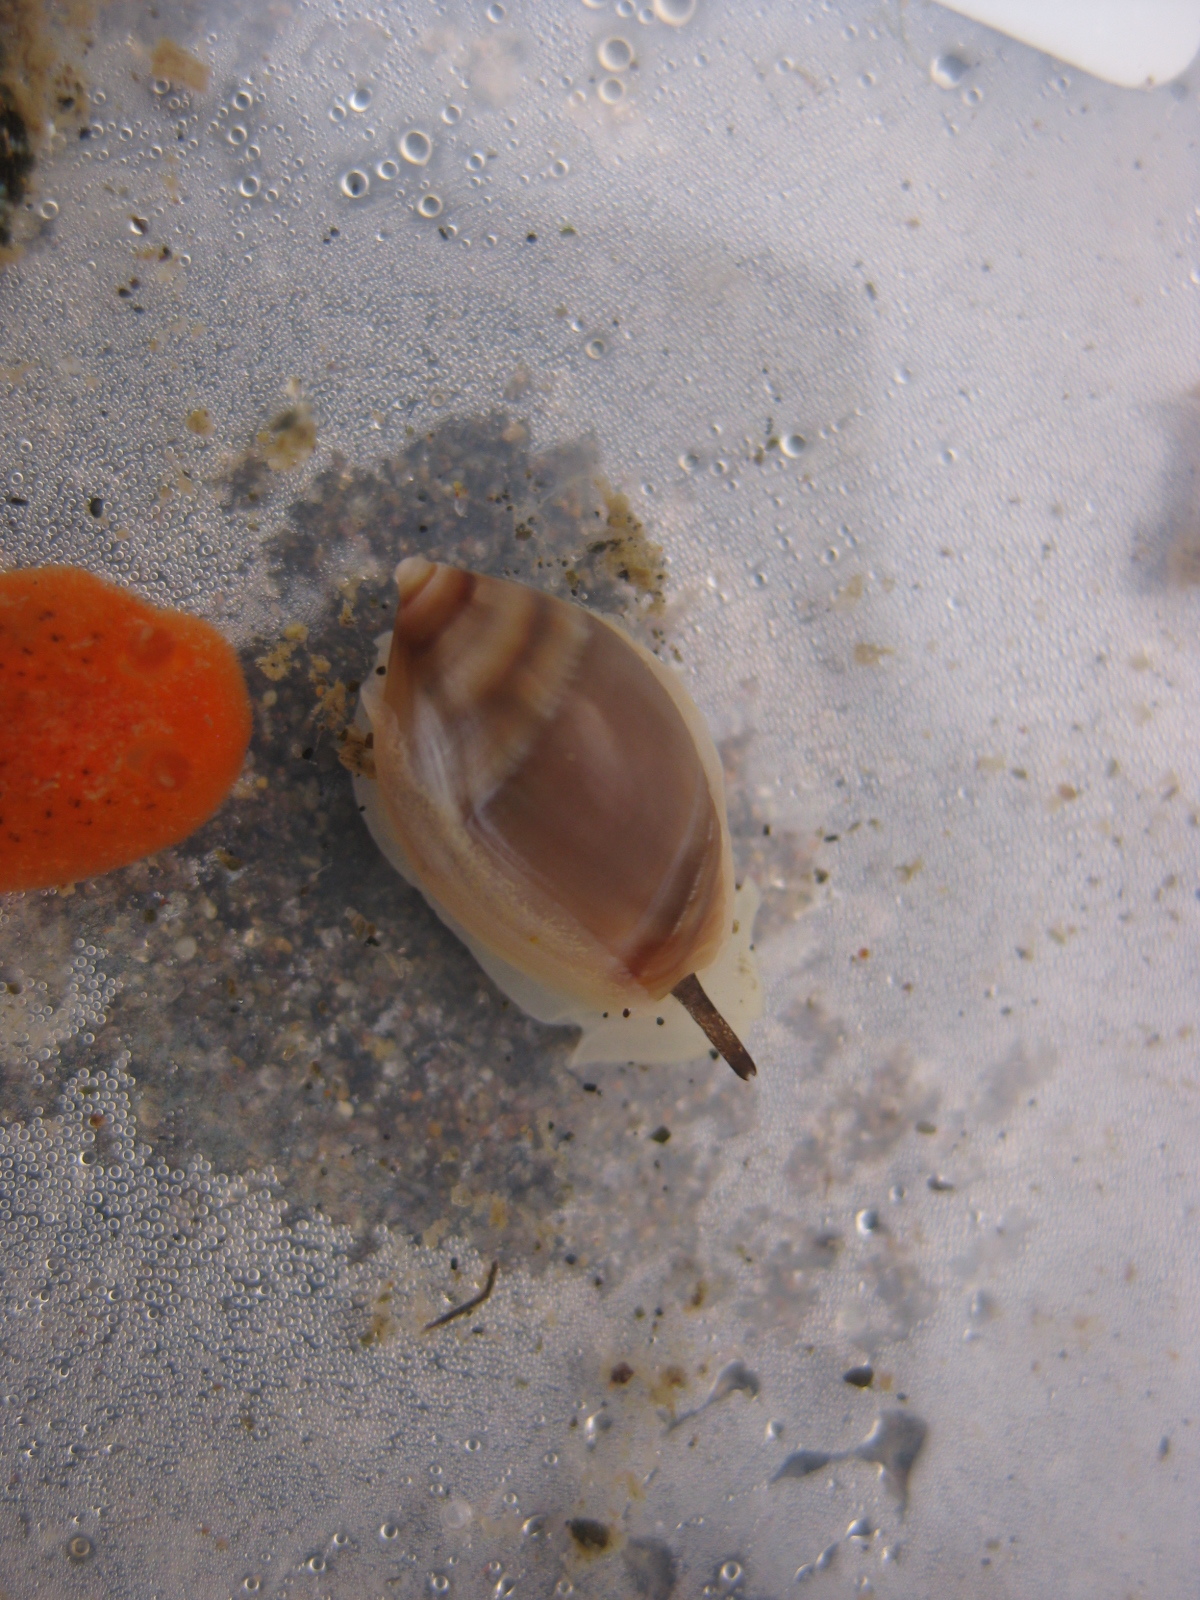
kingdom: Animalia
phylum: Mollusca
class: Gastropoda
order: Neogastropoda
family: Ancillariidae
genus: Amalda
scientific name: Amalda depressa
